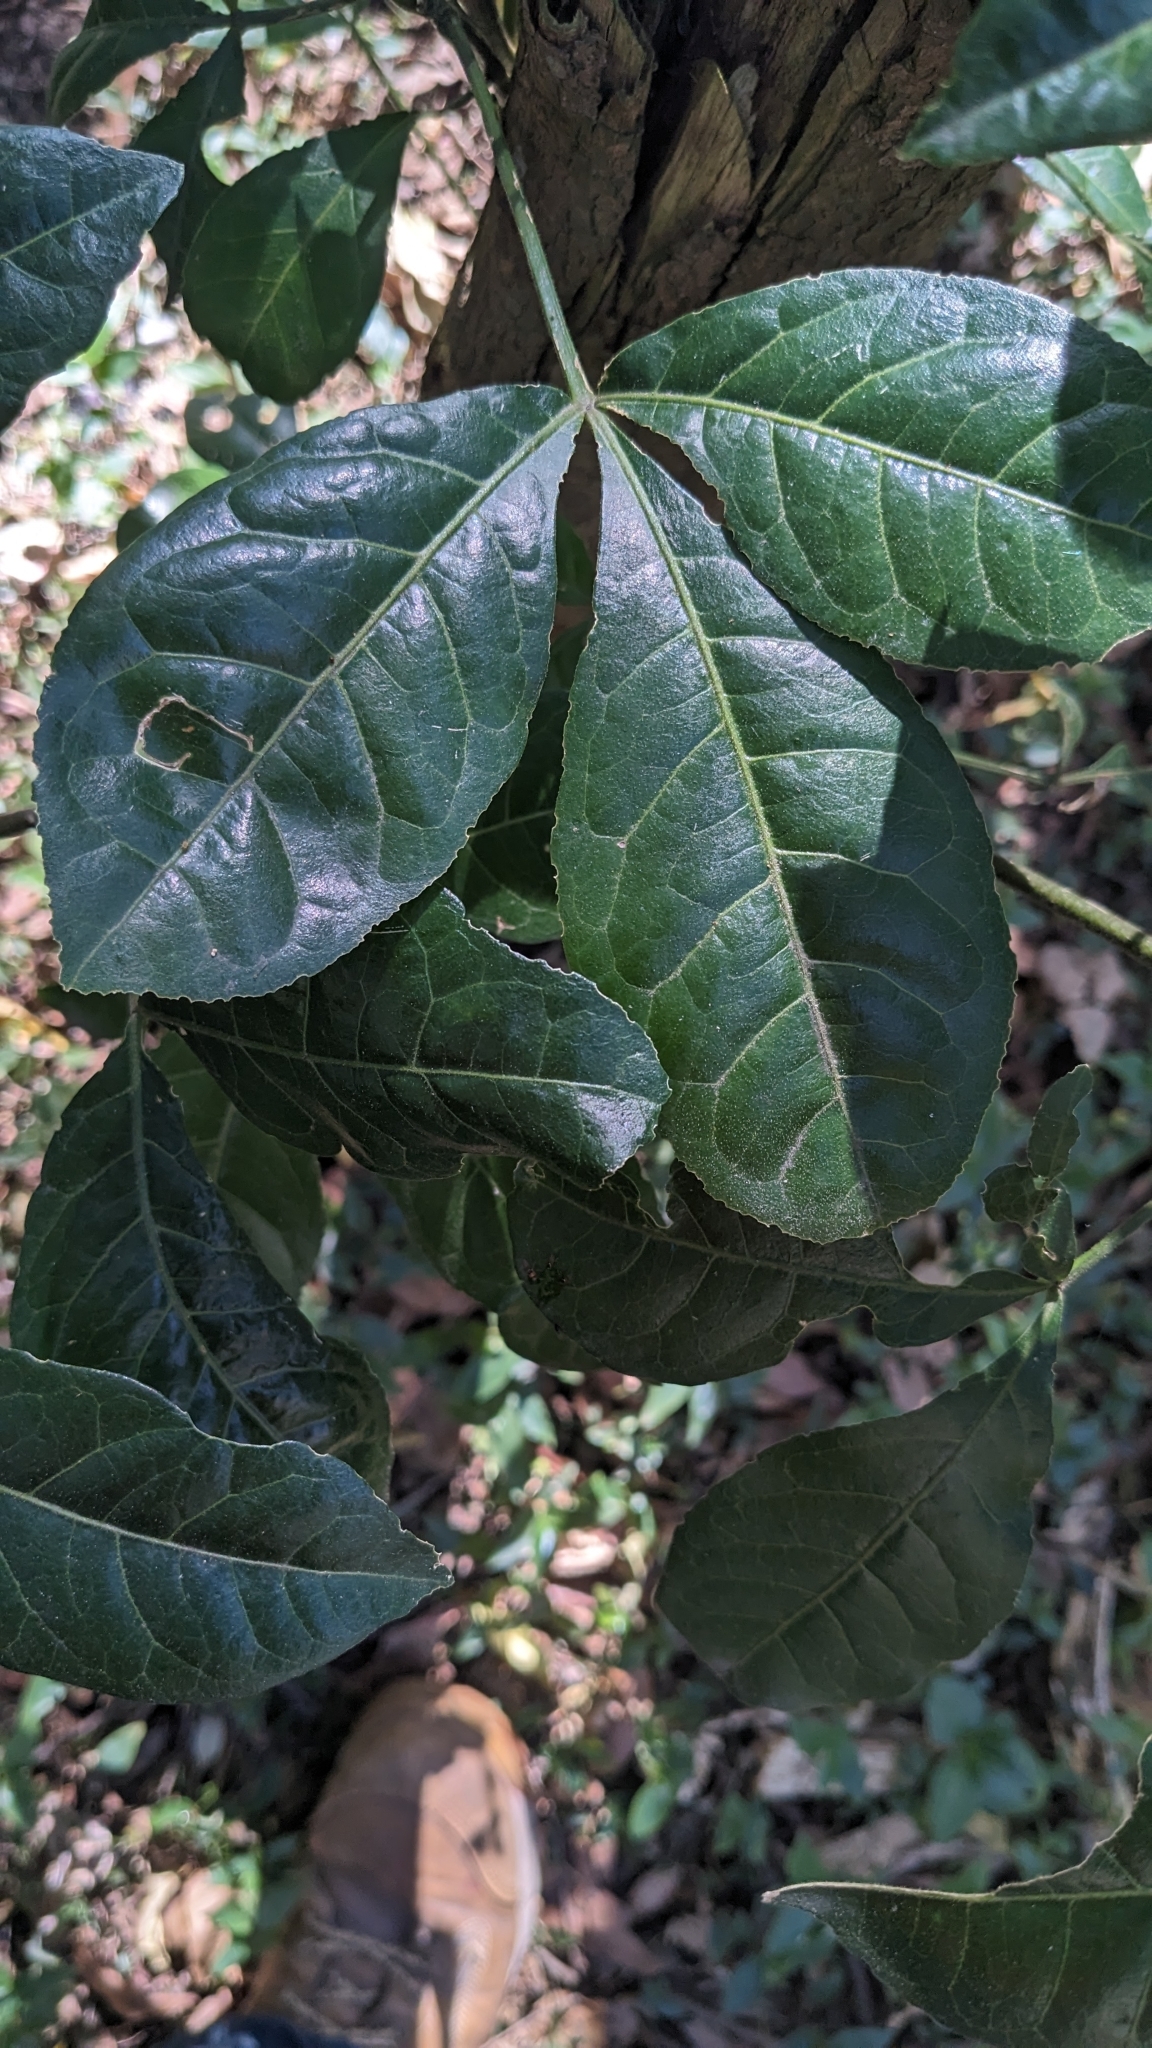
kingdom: Plantae
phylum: Tracheophyta
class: Magnoliopsida
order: Sapindales
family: Rutaceae
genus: Melicope
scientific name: Melicope micrococca
